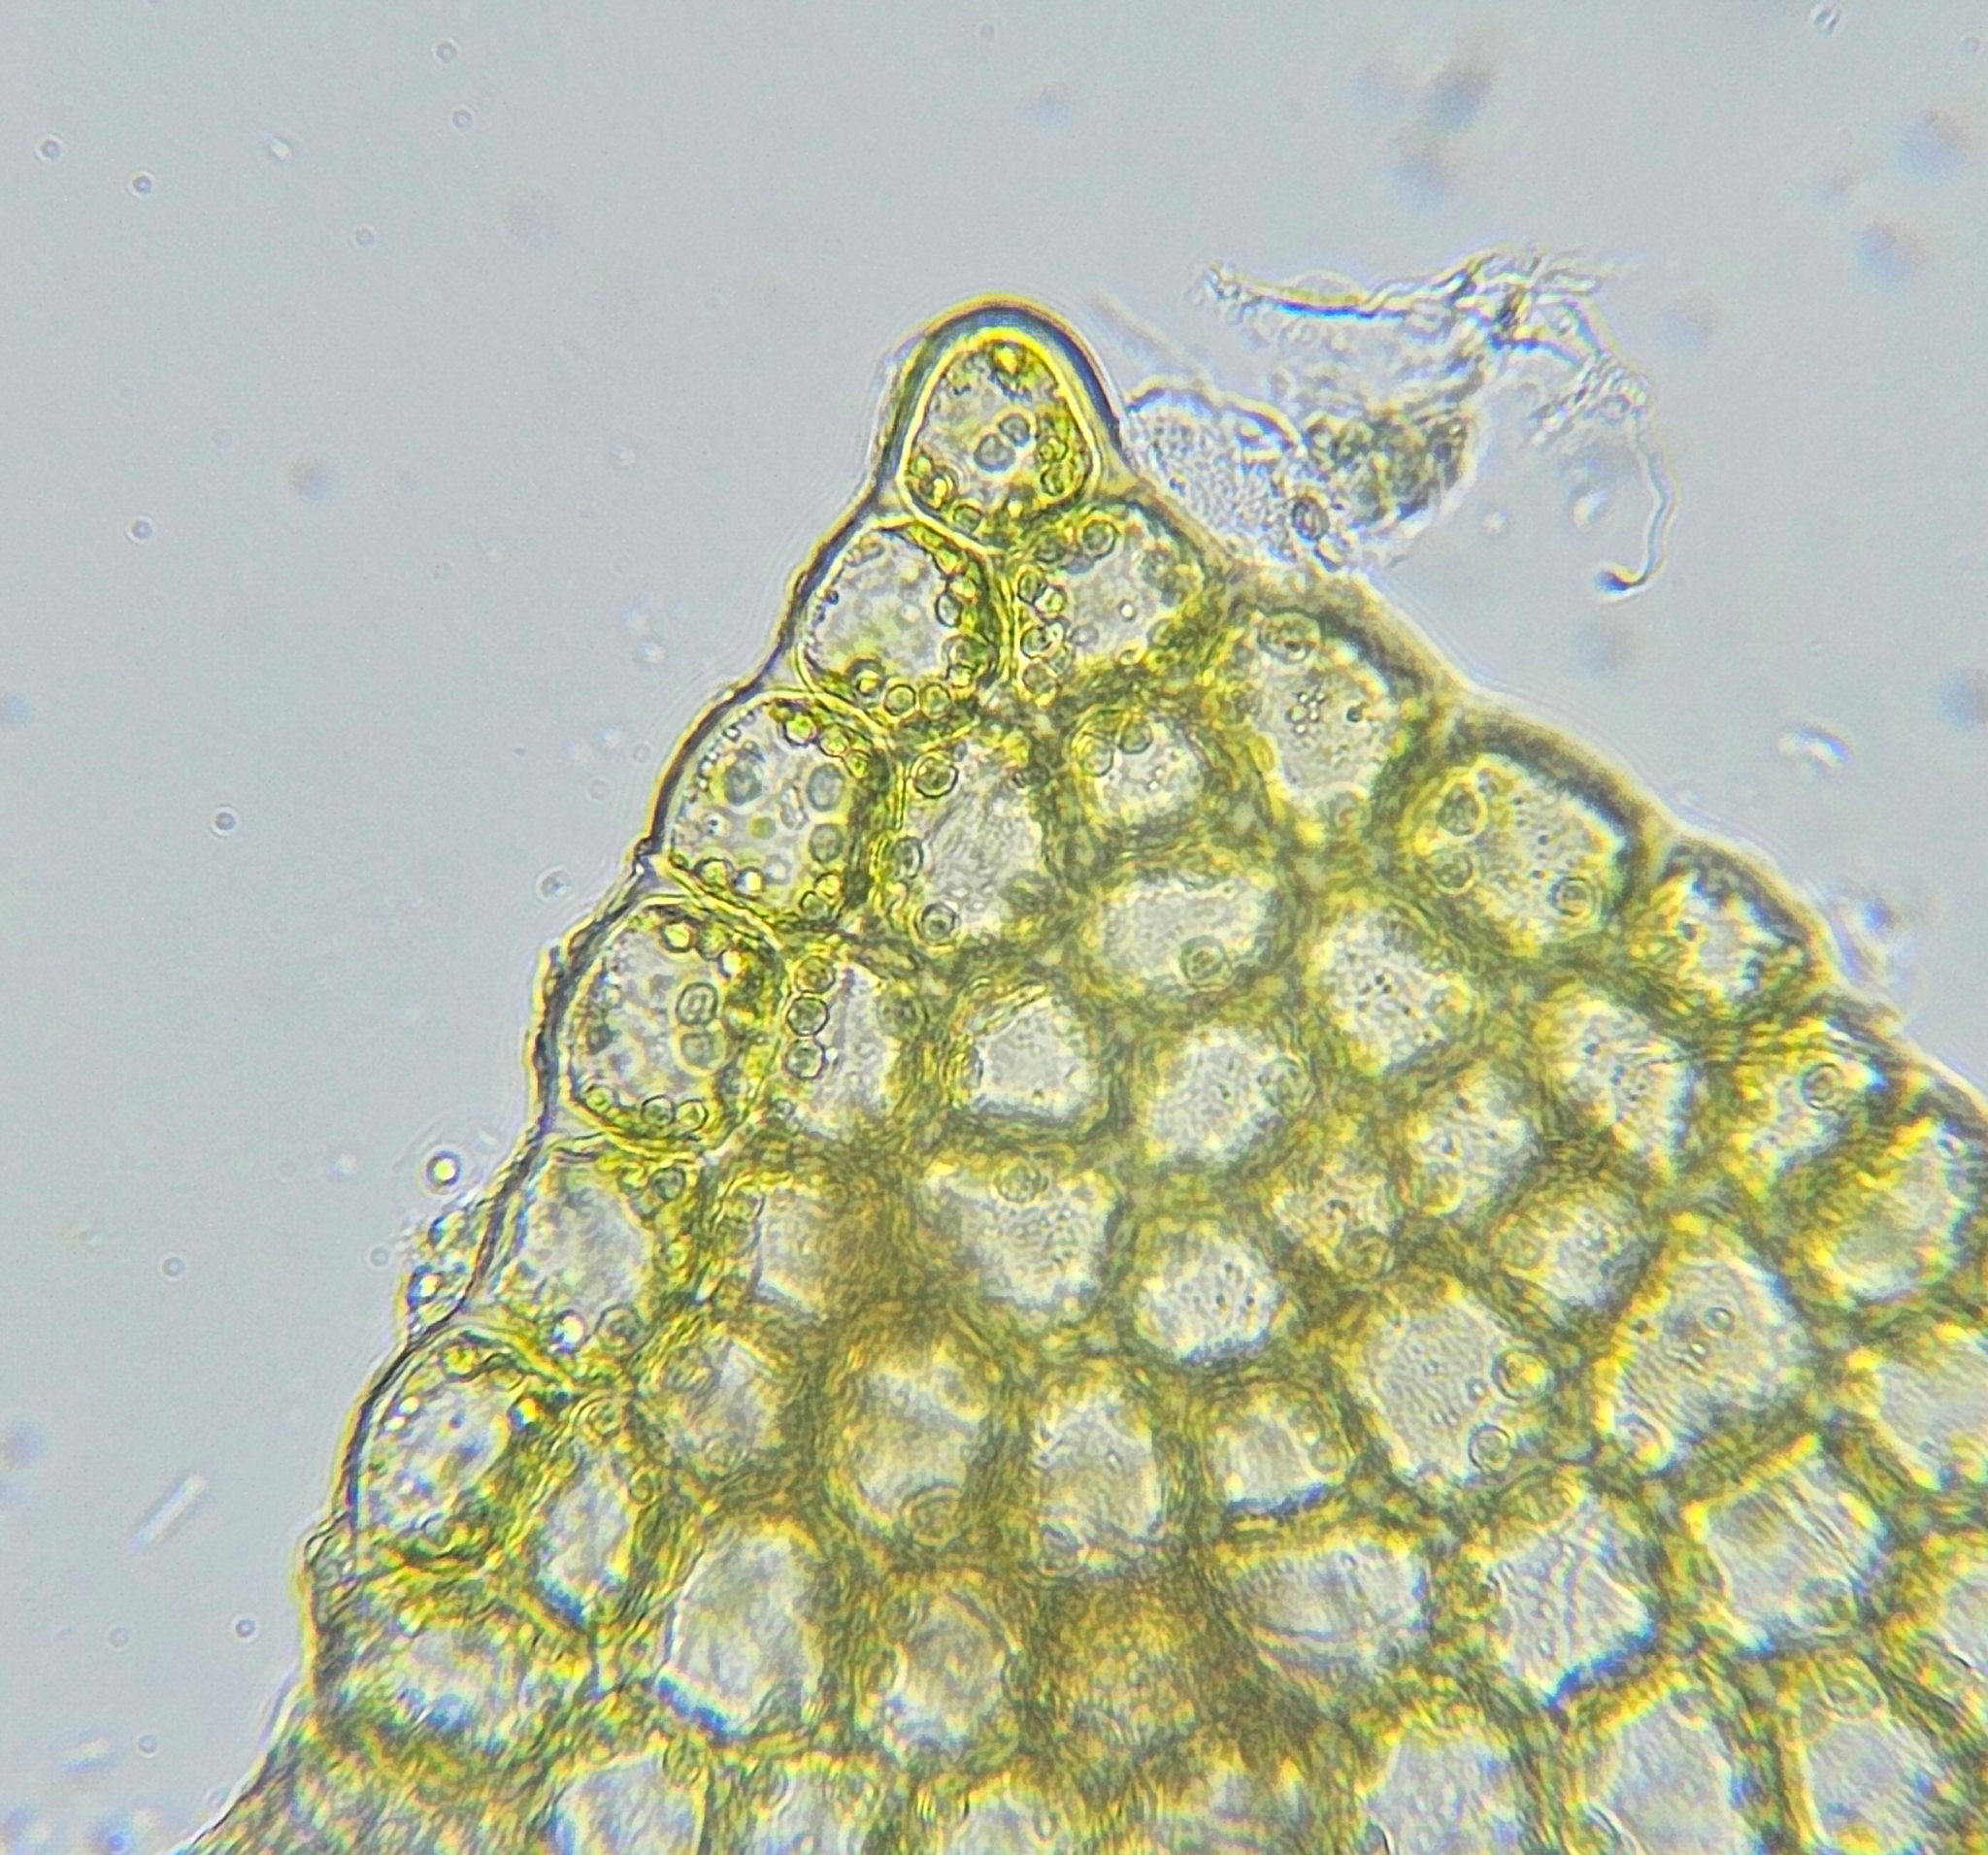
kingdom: Plantae
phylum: Marchantiophyta
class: Jungermanniopsida
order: Jungermanniales
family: Lophoziaceae
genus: Trilophozia
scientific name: Trilophozia quinquedentata
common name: Large notchwort
